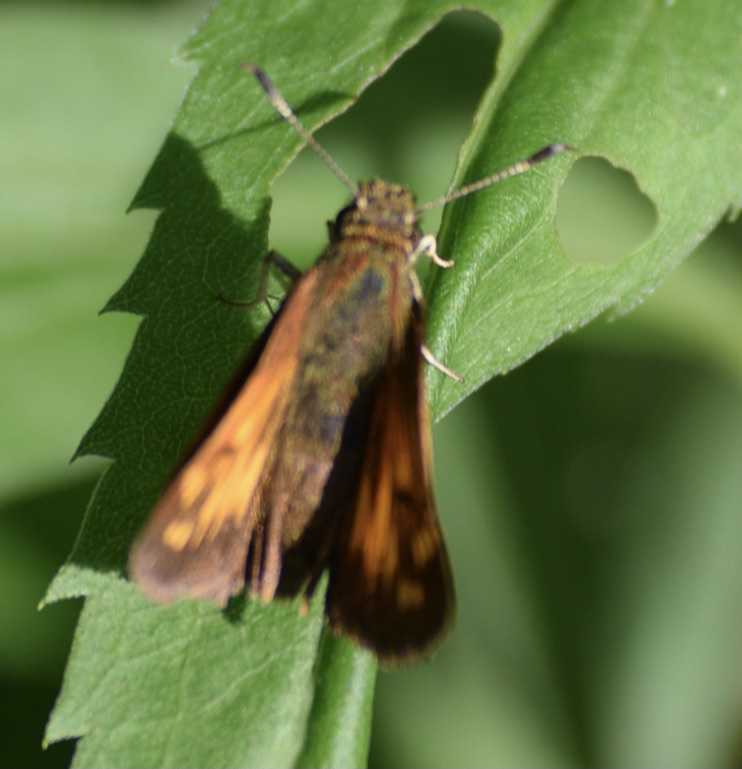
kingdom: Animalia
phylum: Arthropoda
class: Insecta
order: Lepidoptera
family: Hesperiidae
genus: Lon
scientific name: Lon hobomok
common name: Hobomok skipper
